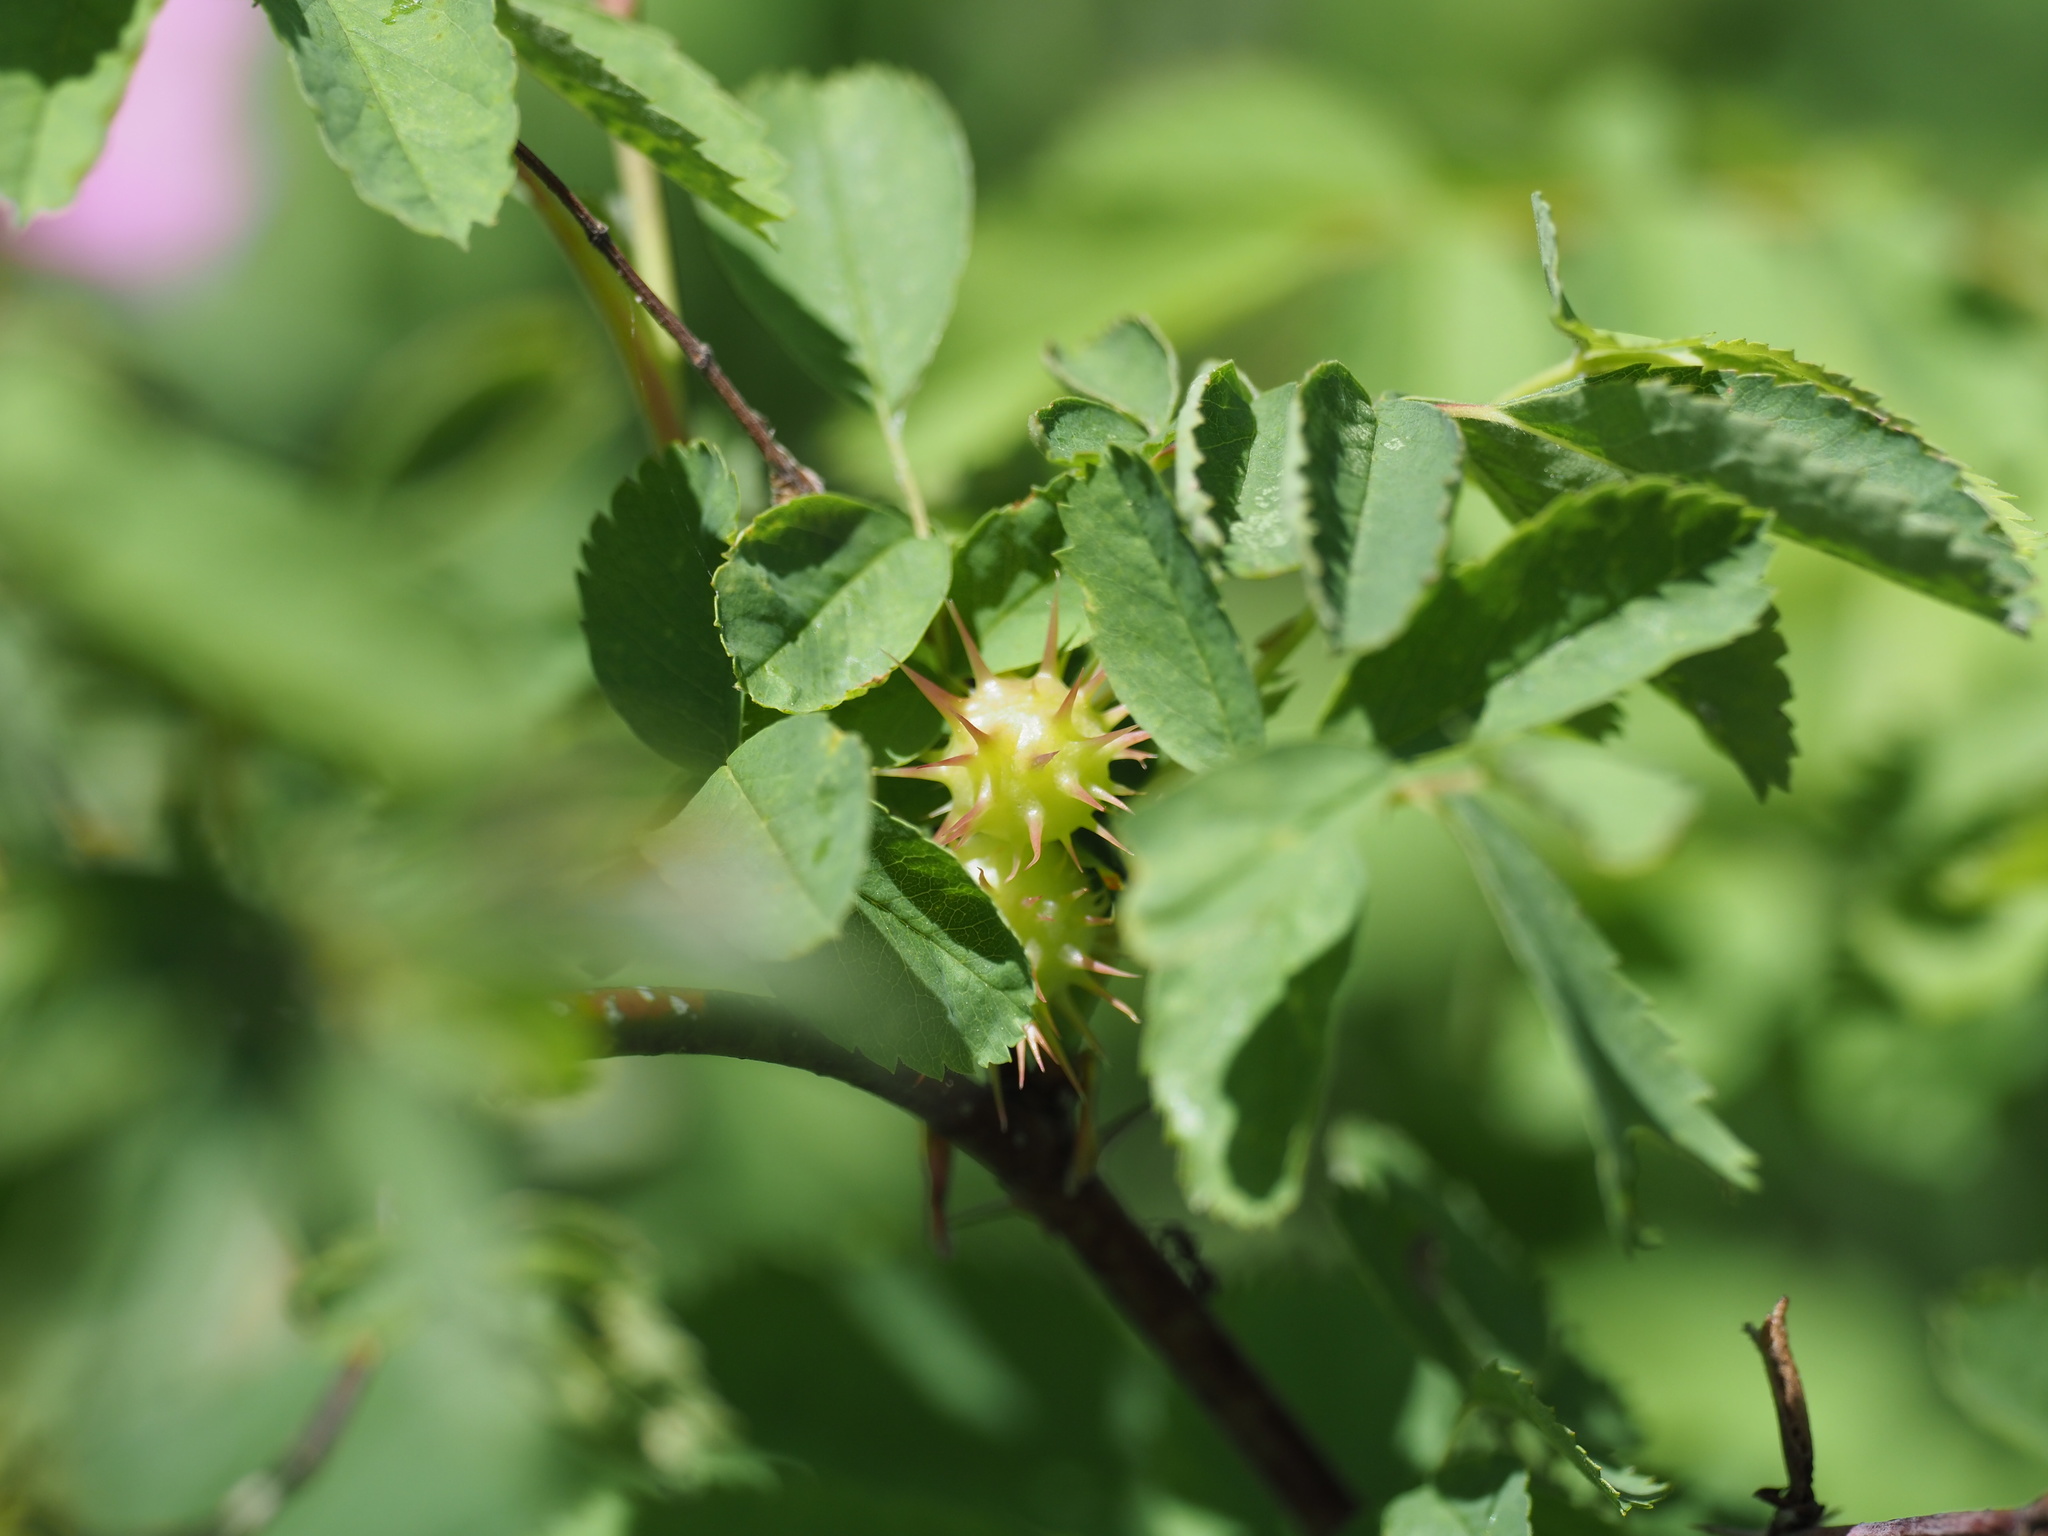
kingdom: Animalia
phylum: Arthropoda
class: Insecta
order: Hymenoptera
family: Cynipidae
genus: Diplolepis
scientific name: Diplolepis polita
